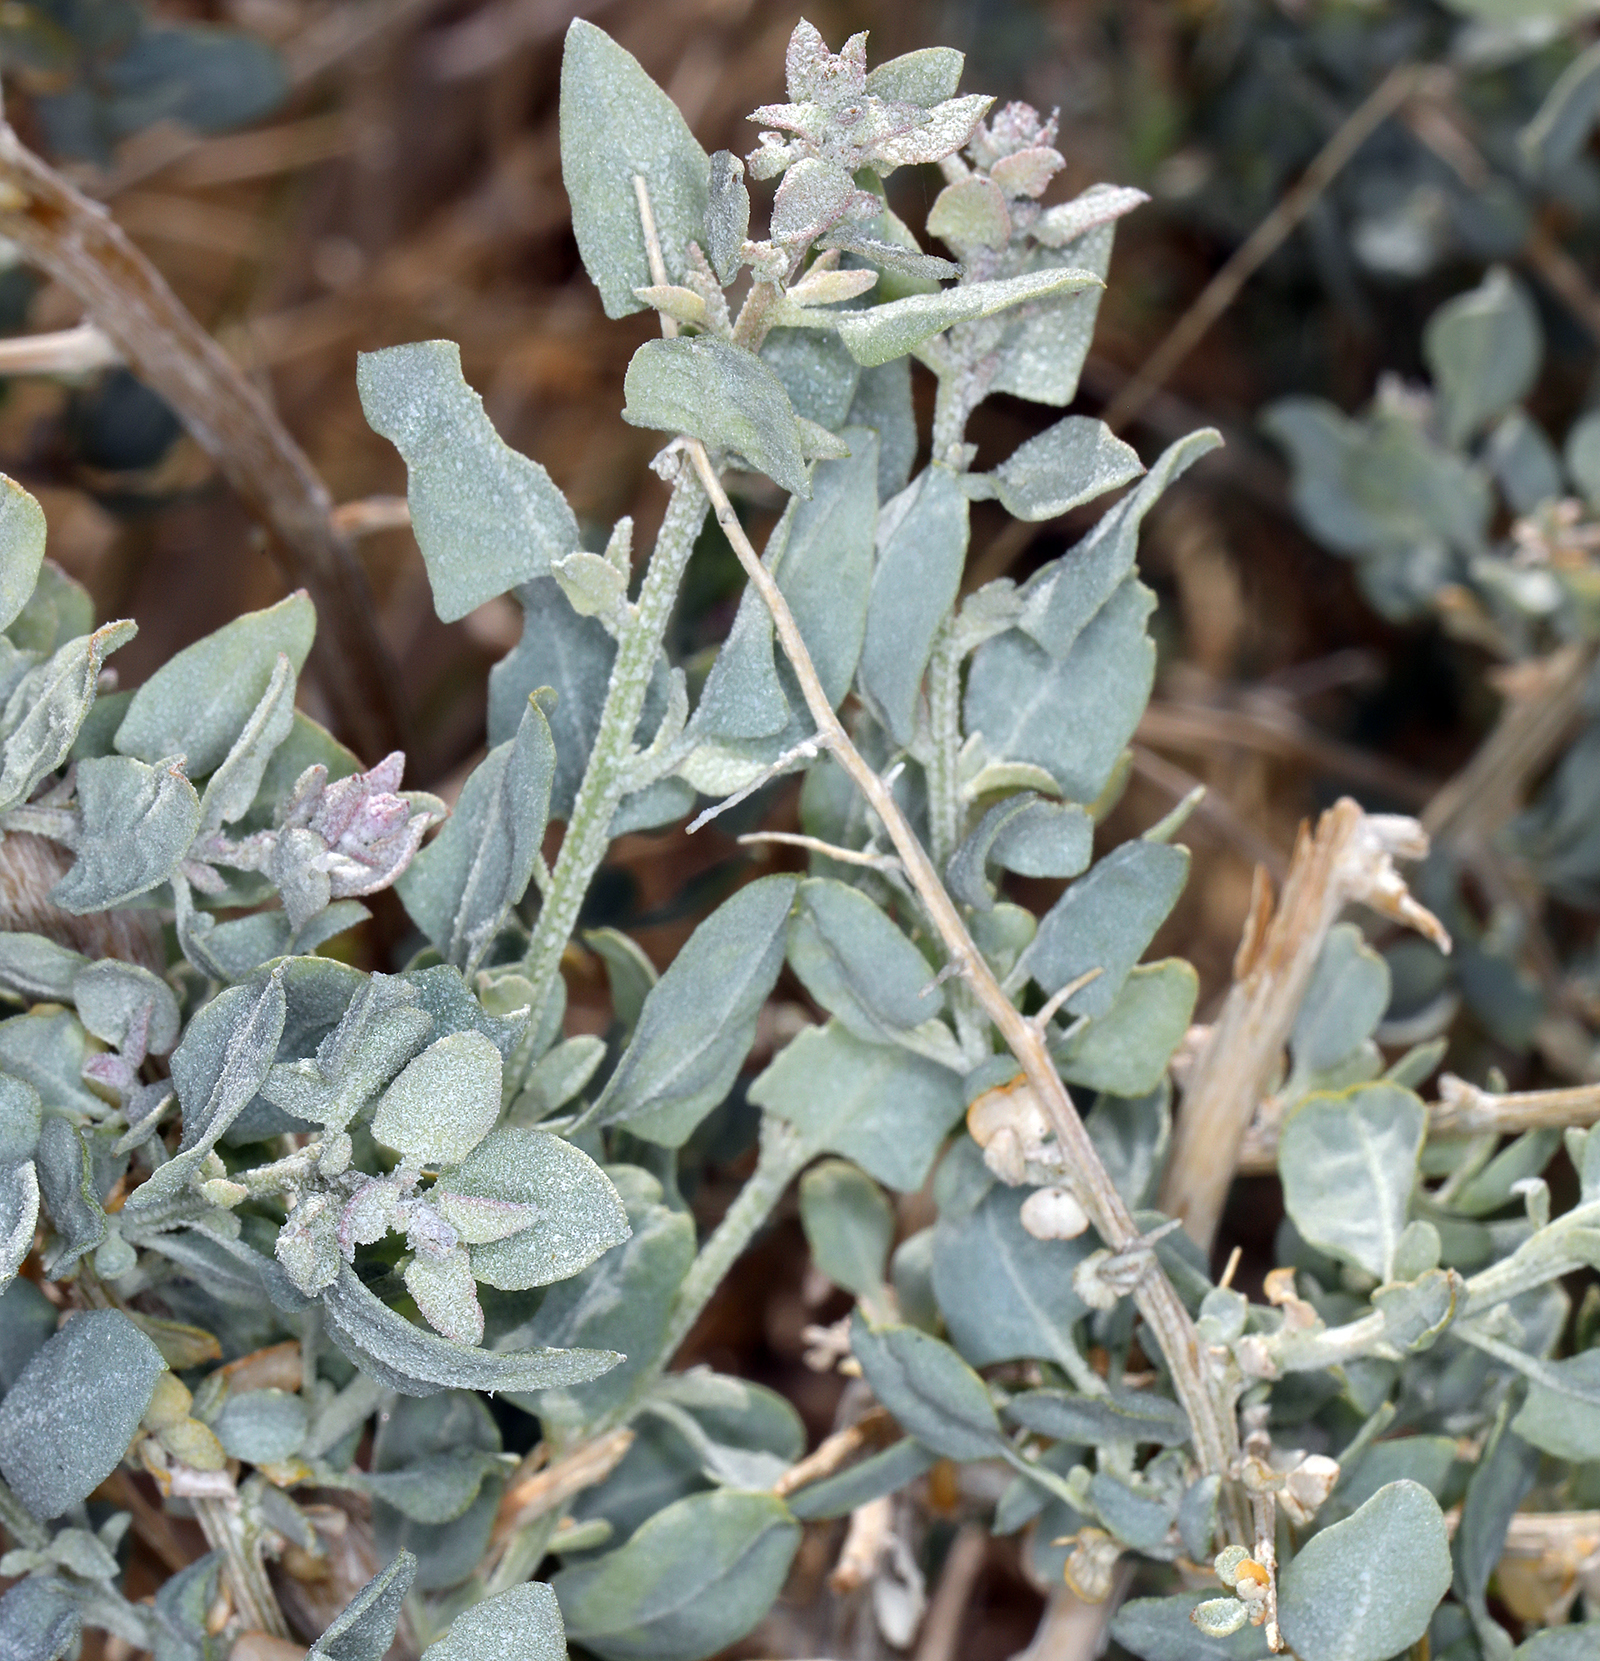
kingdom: Plantae
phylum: Tracheophyta
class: Magnoliopsida
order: Caryophyllales
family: Amaranthaceae
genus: Atriplex
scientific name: Atriplex torreyi
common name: Torrey's saltbush
